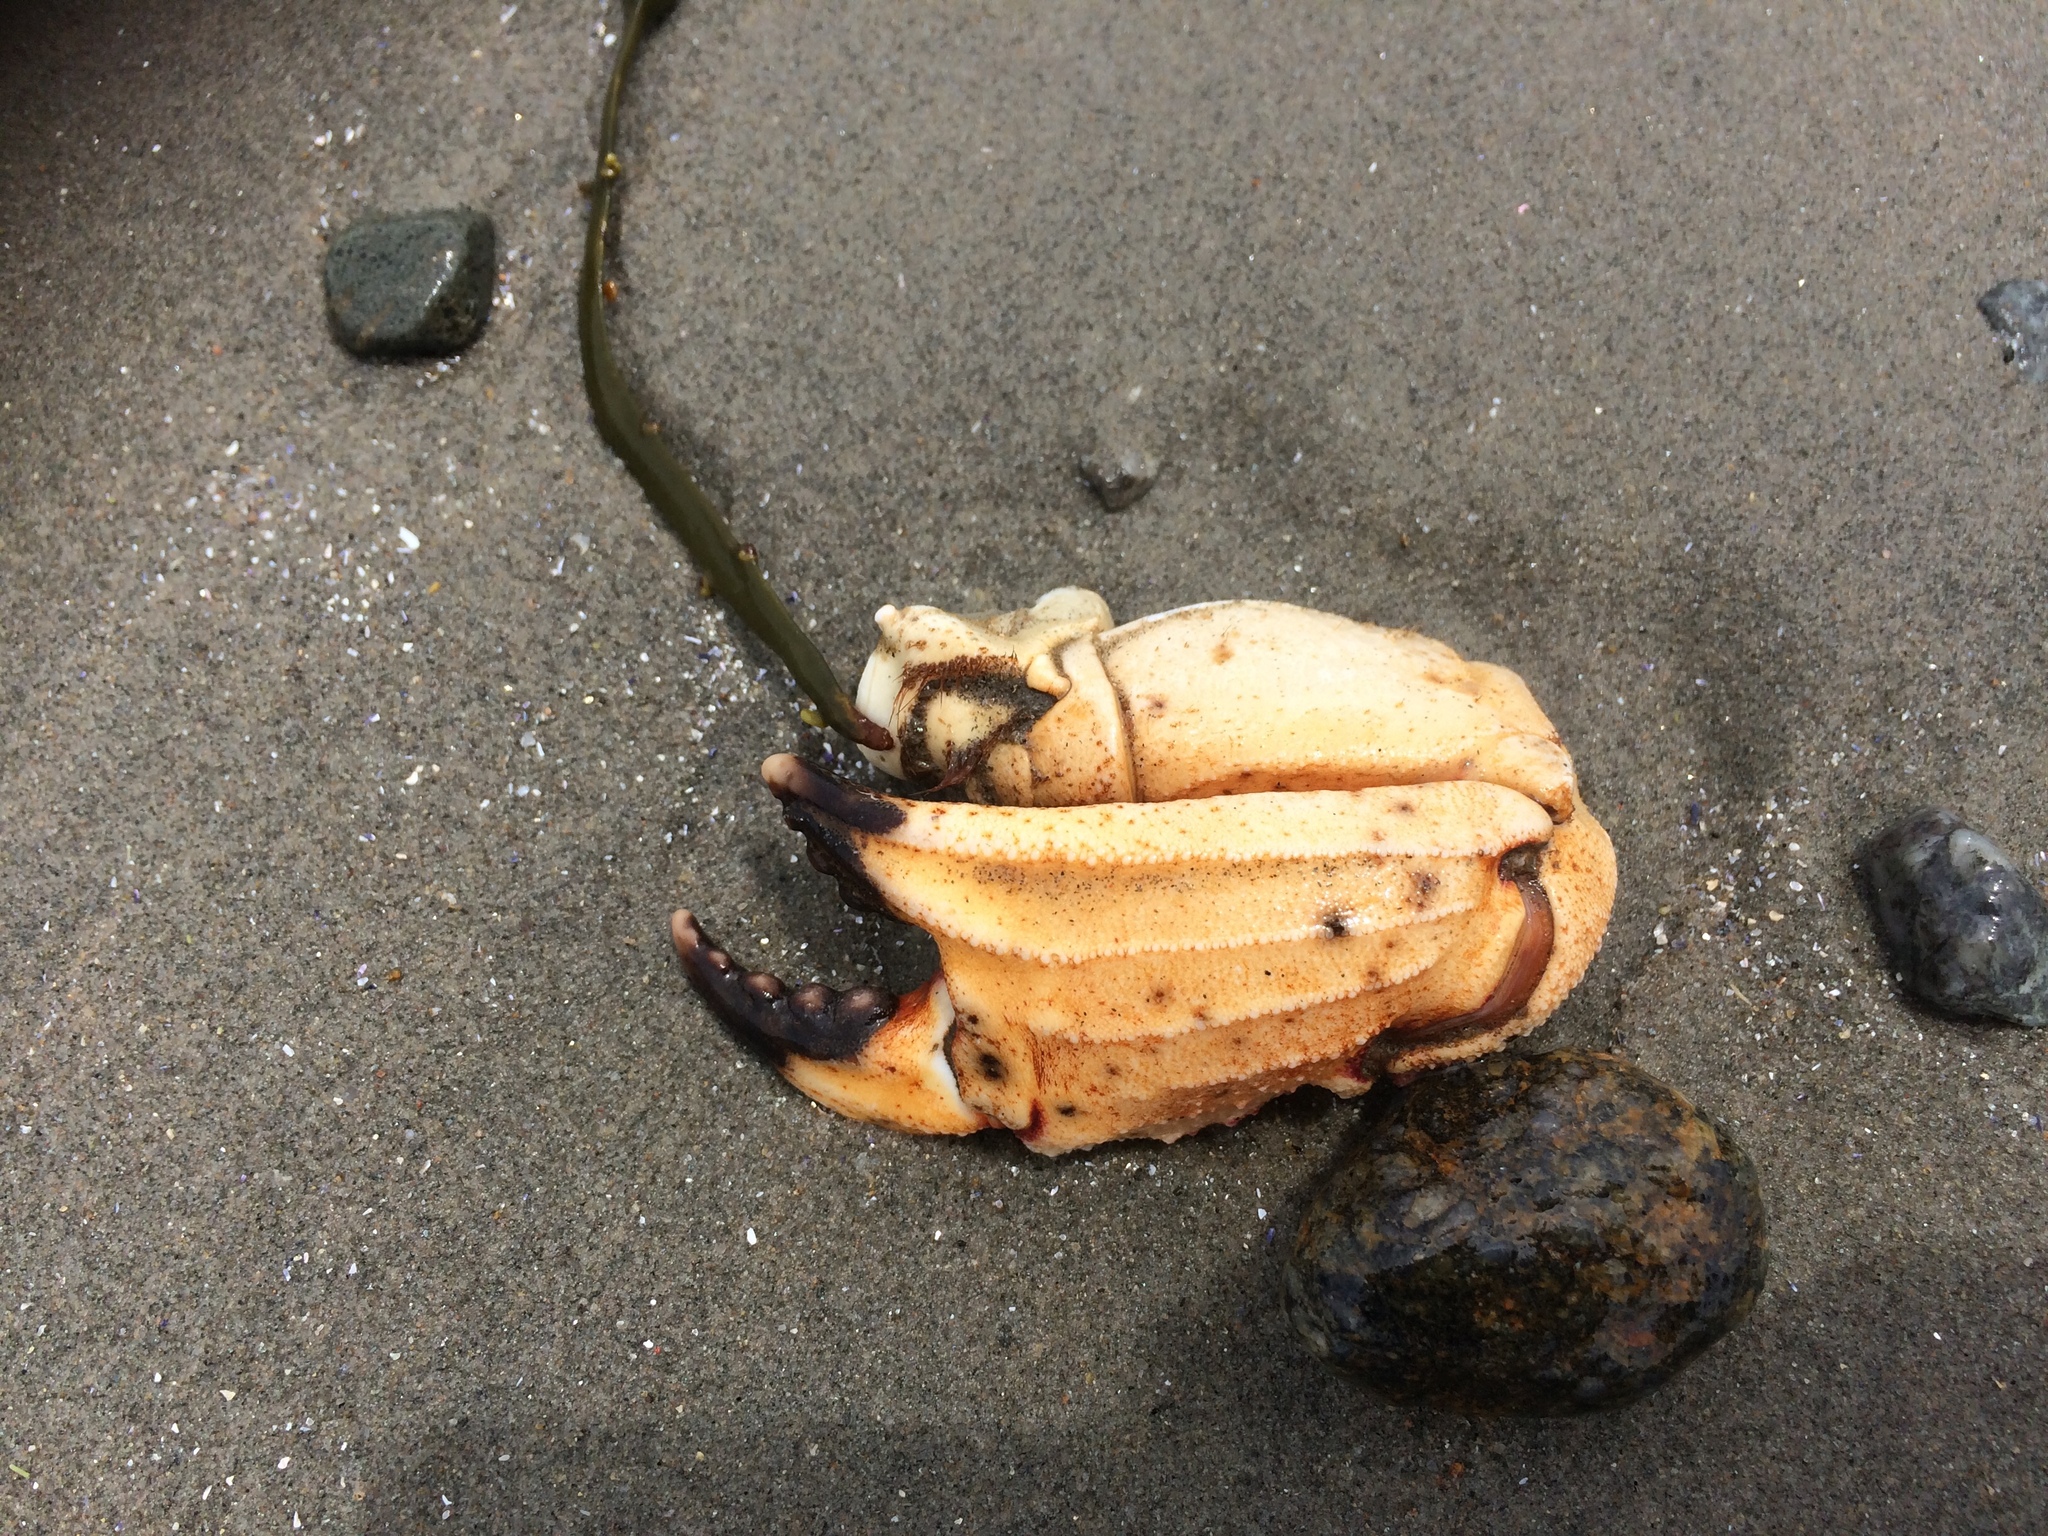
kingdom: Animalia
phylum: Arthropoda
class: Malacostraca
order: Decapoda
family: Cancridae
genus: Cancer
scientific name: Cancer borealis
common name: Jonah crab
